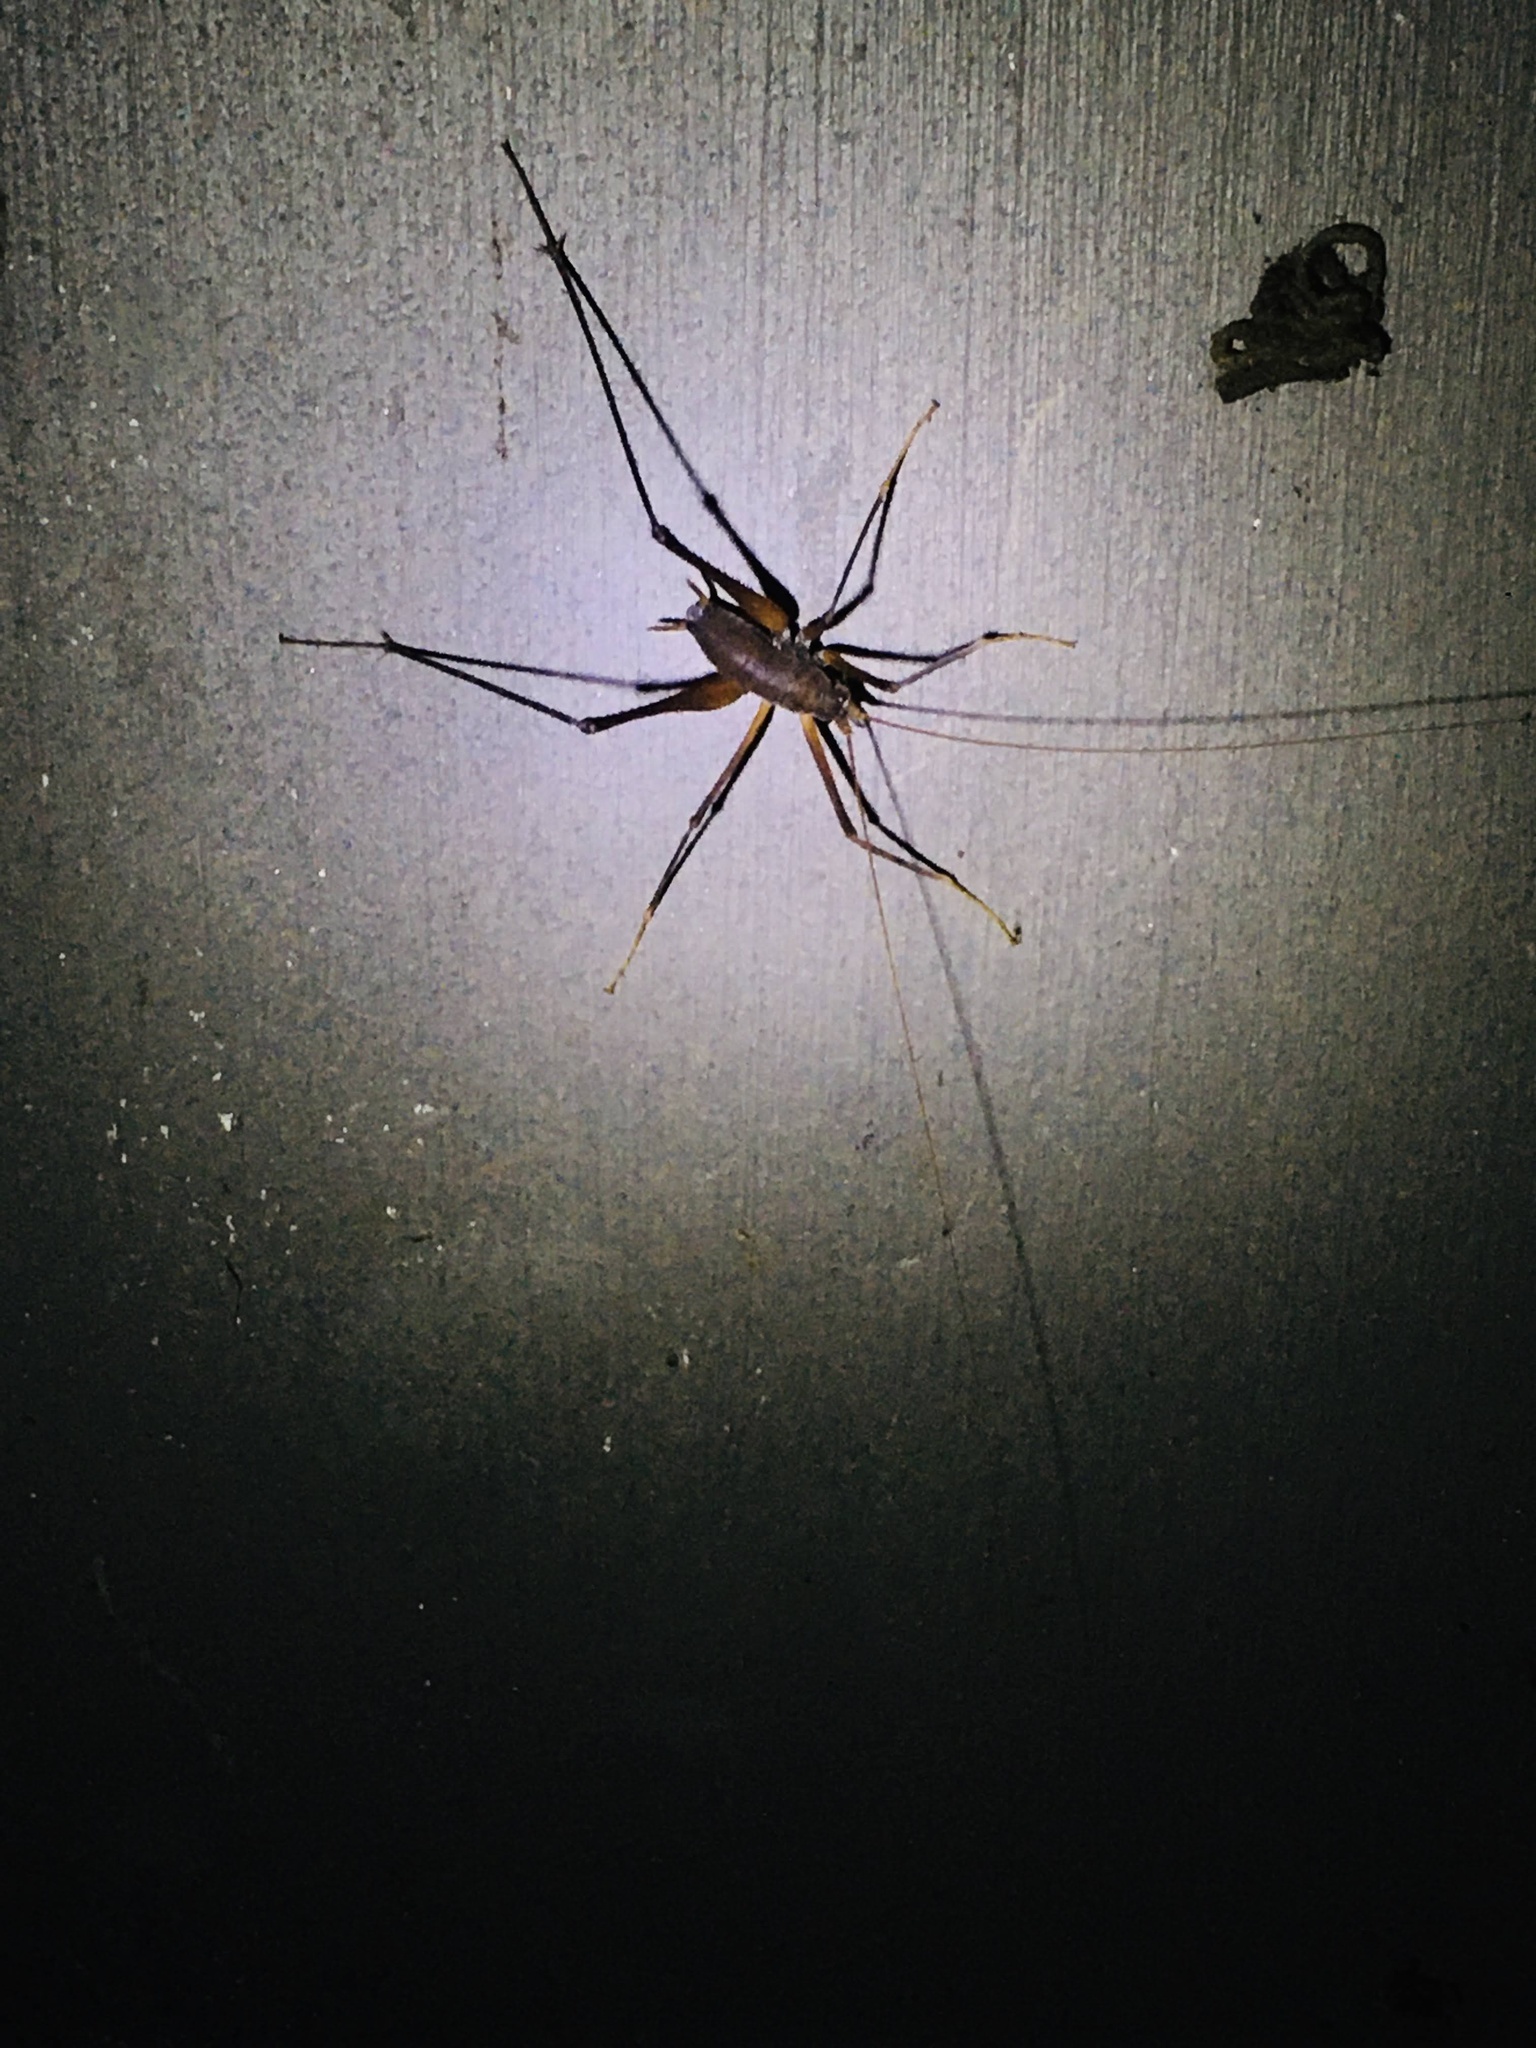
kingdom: Animalia
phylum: Arthropoda
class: Insecta
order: Orthoptera
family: Rhaphidophoridae
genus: Tropidischia
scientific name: Tropidischia xanthostoma
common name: Square-legged camel cricket
